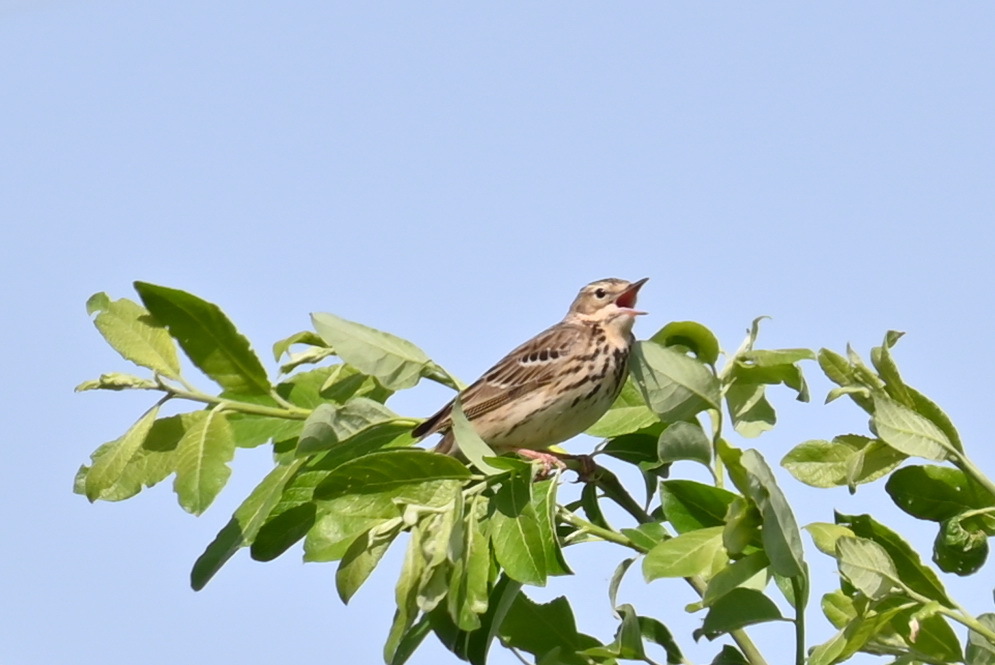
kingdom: Animalia
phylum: Chordata
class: Aves
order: Passeriformes
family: Motacillidae
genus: Anthus
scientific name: Anthus trivialis
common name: Tree pipit
